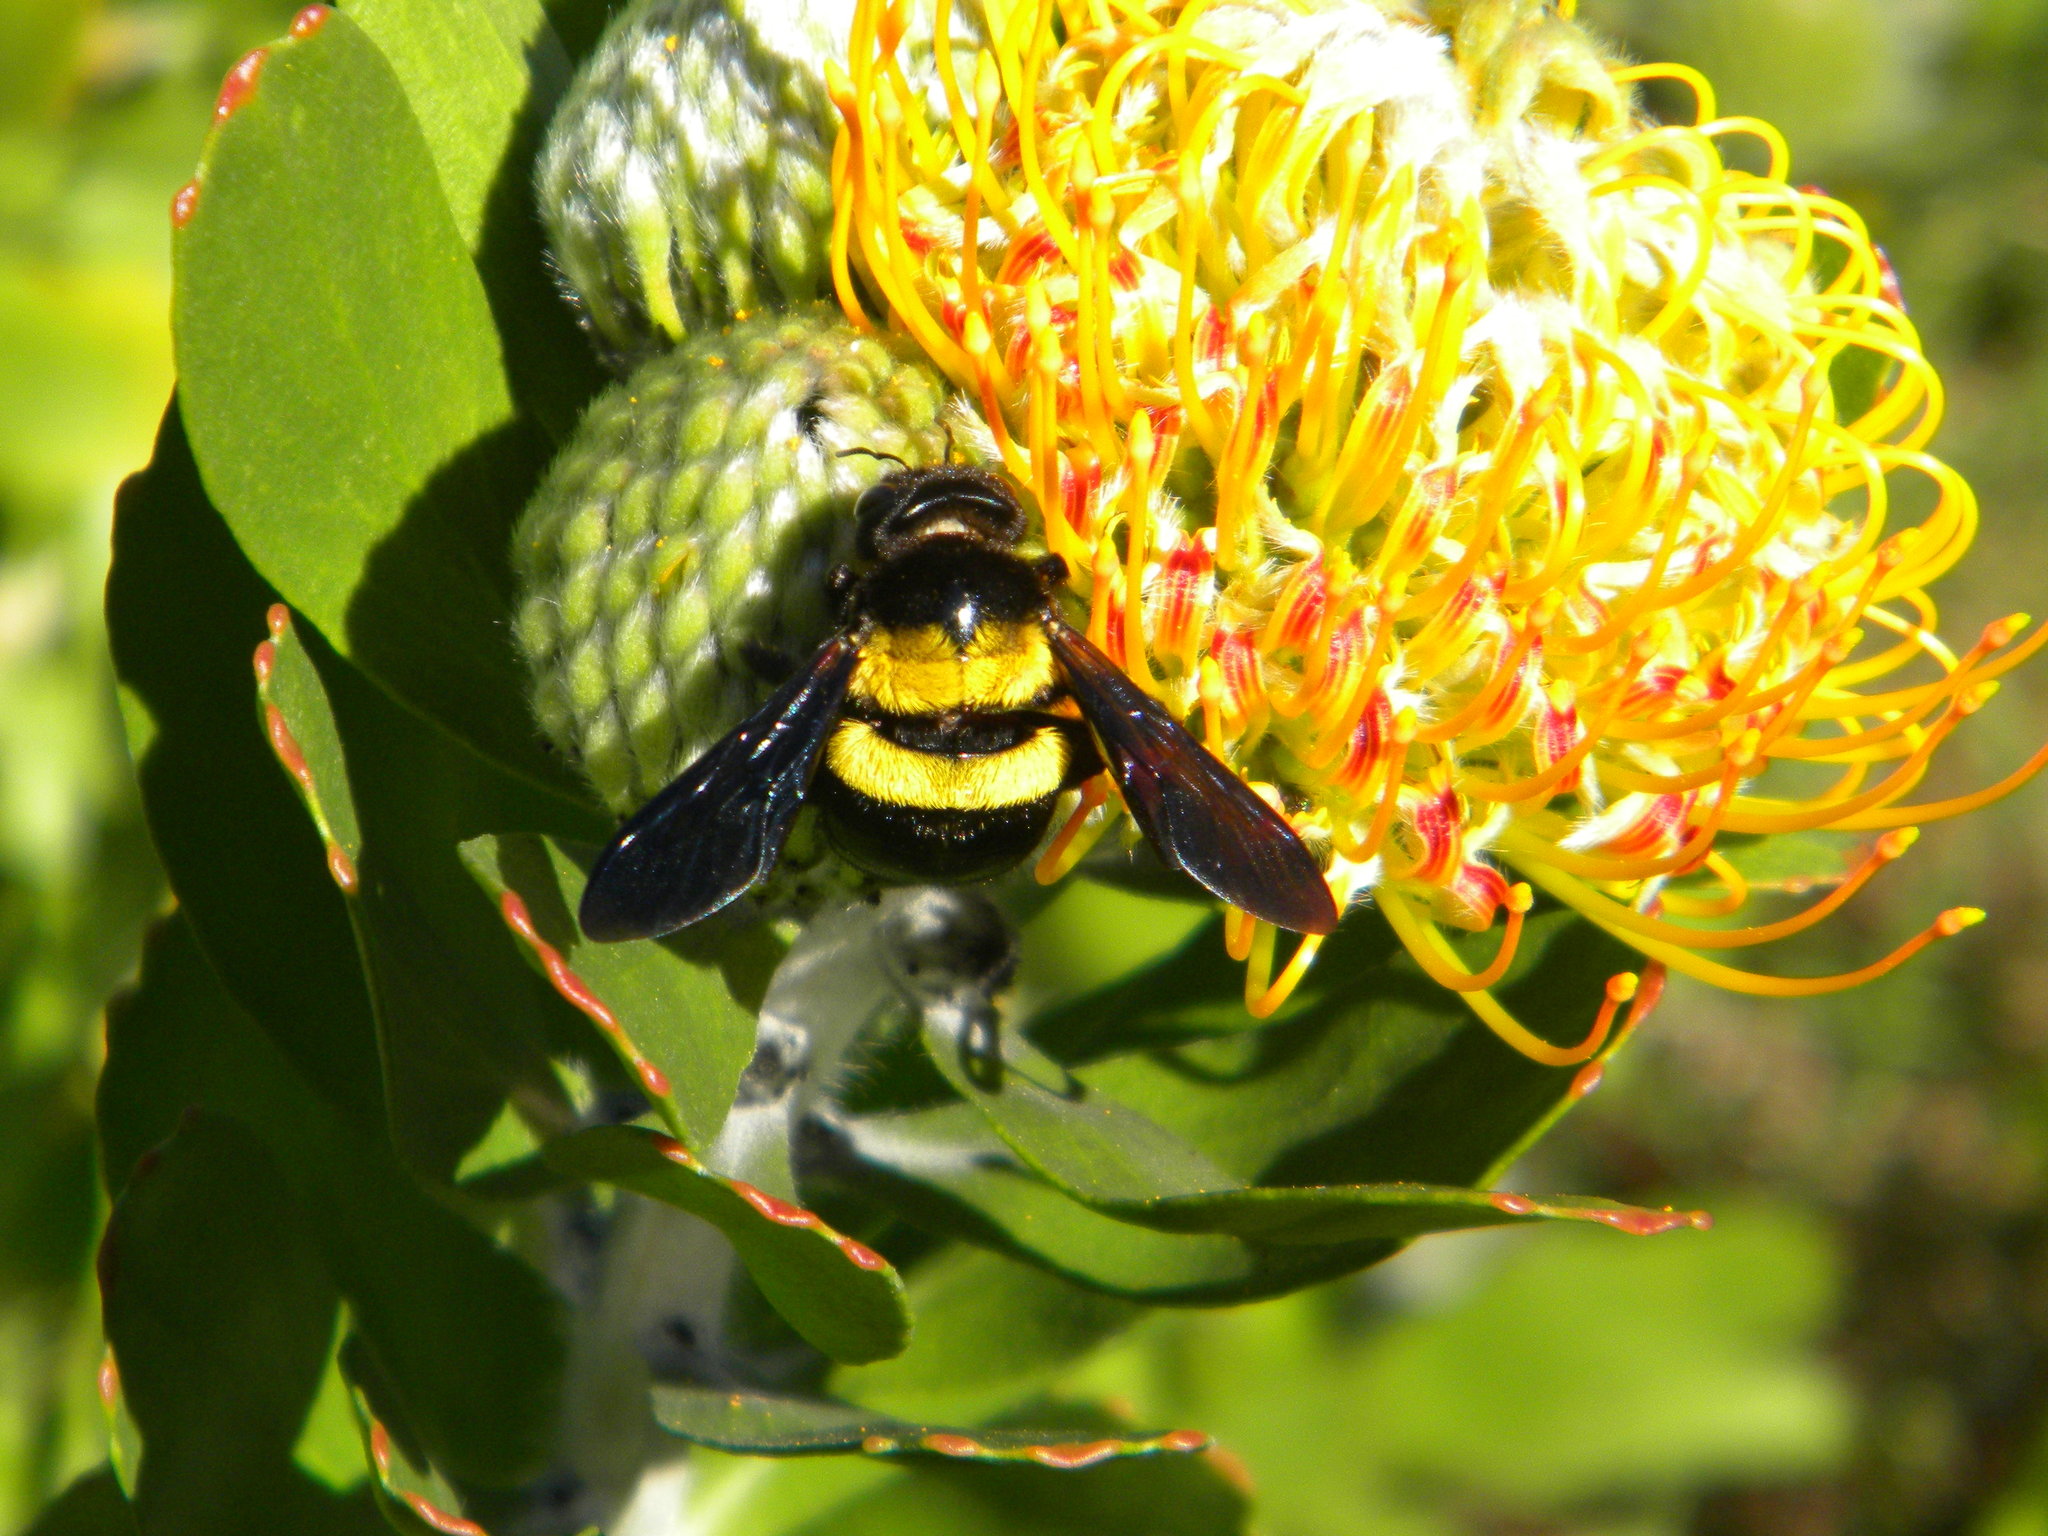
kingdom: Animalia
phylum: Arthropoda
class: Insecta
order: Hymenoptera
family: Apidae
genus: Xylocopa
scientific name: Xylocopa caffra
